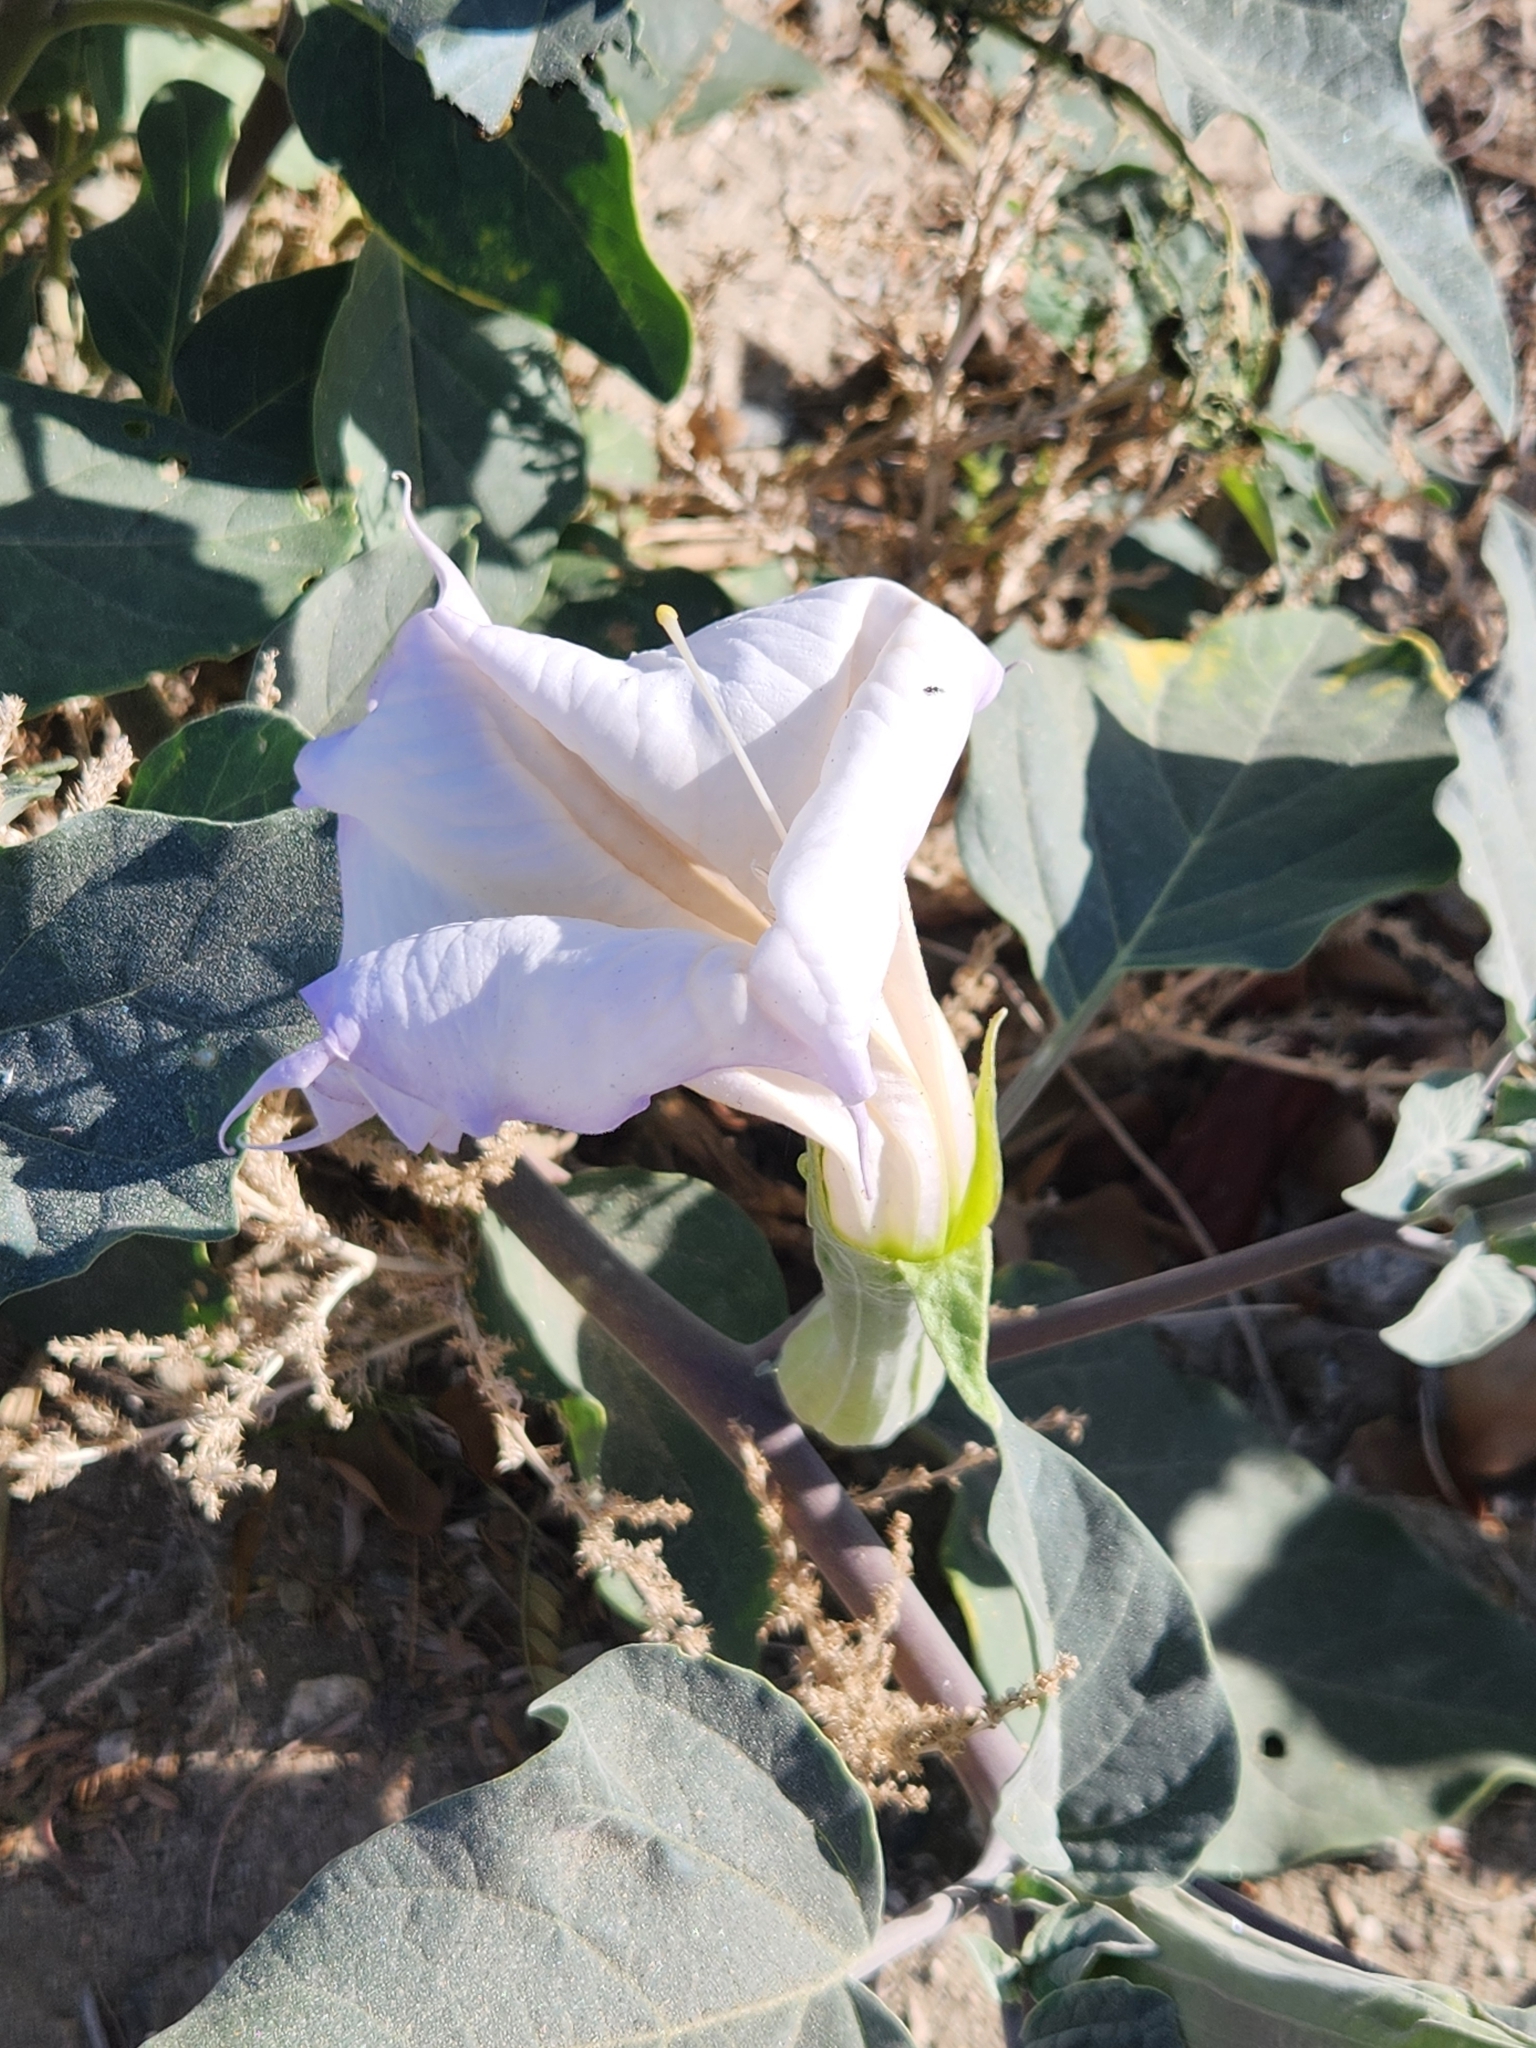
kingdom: Plantae
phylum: Tracheophyta
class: Magnoliopsida
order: Solanales
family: Solanaceae
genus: Datura
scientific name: Datura wrightii
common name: Sacred thorn-apple
